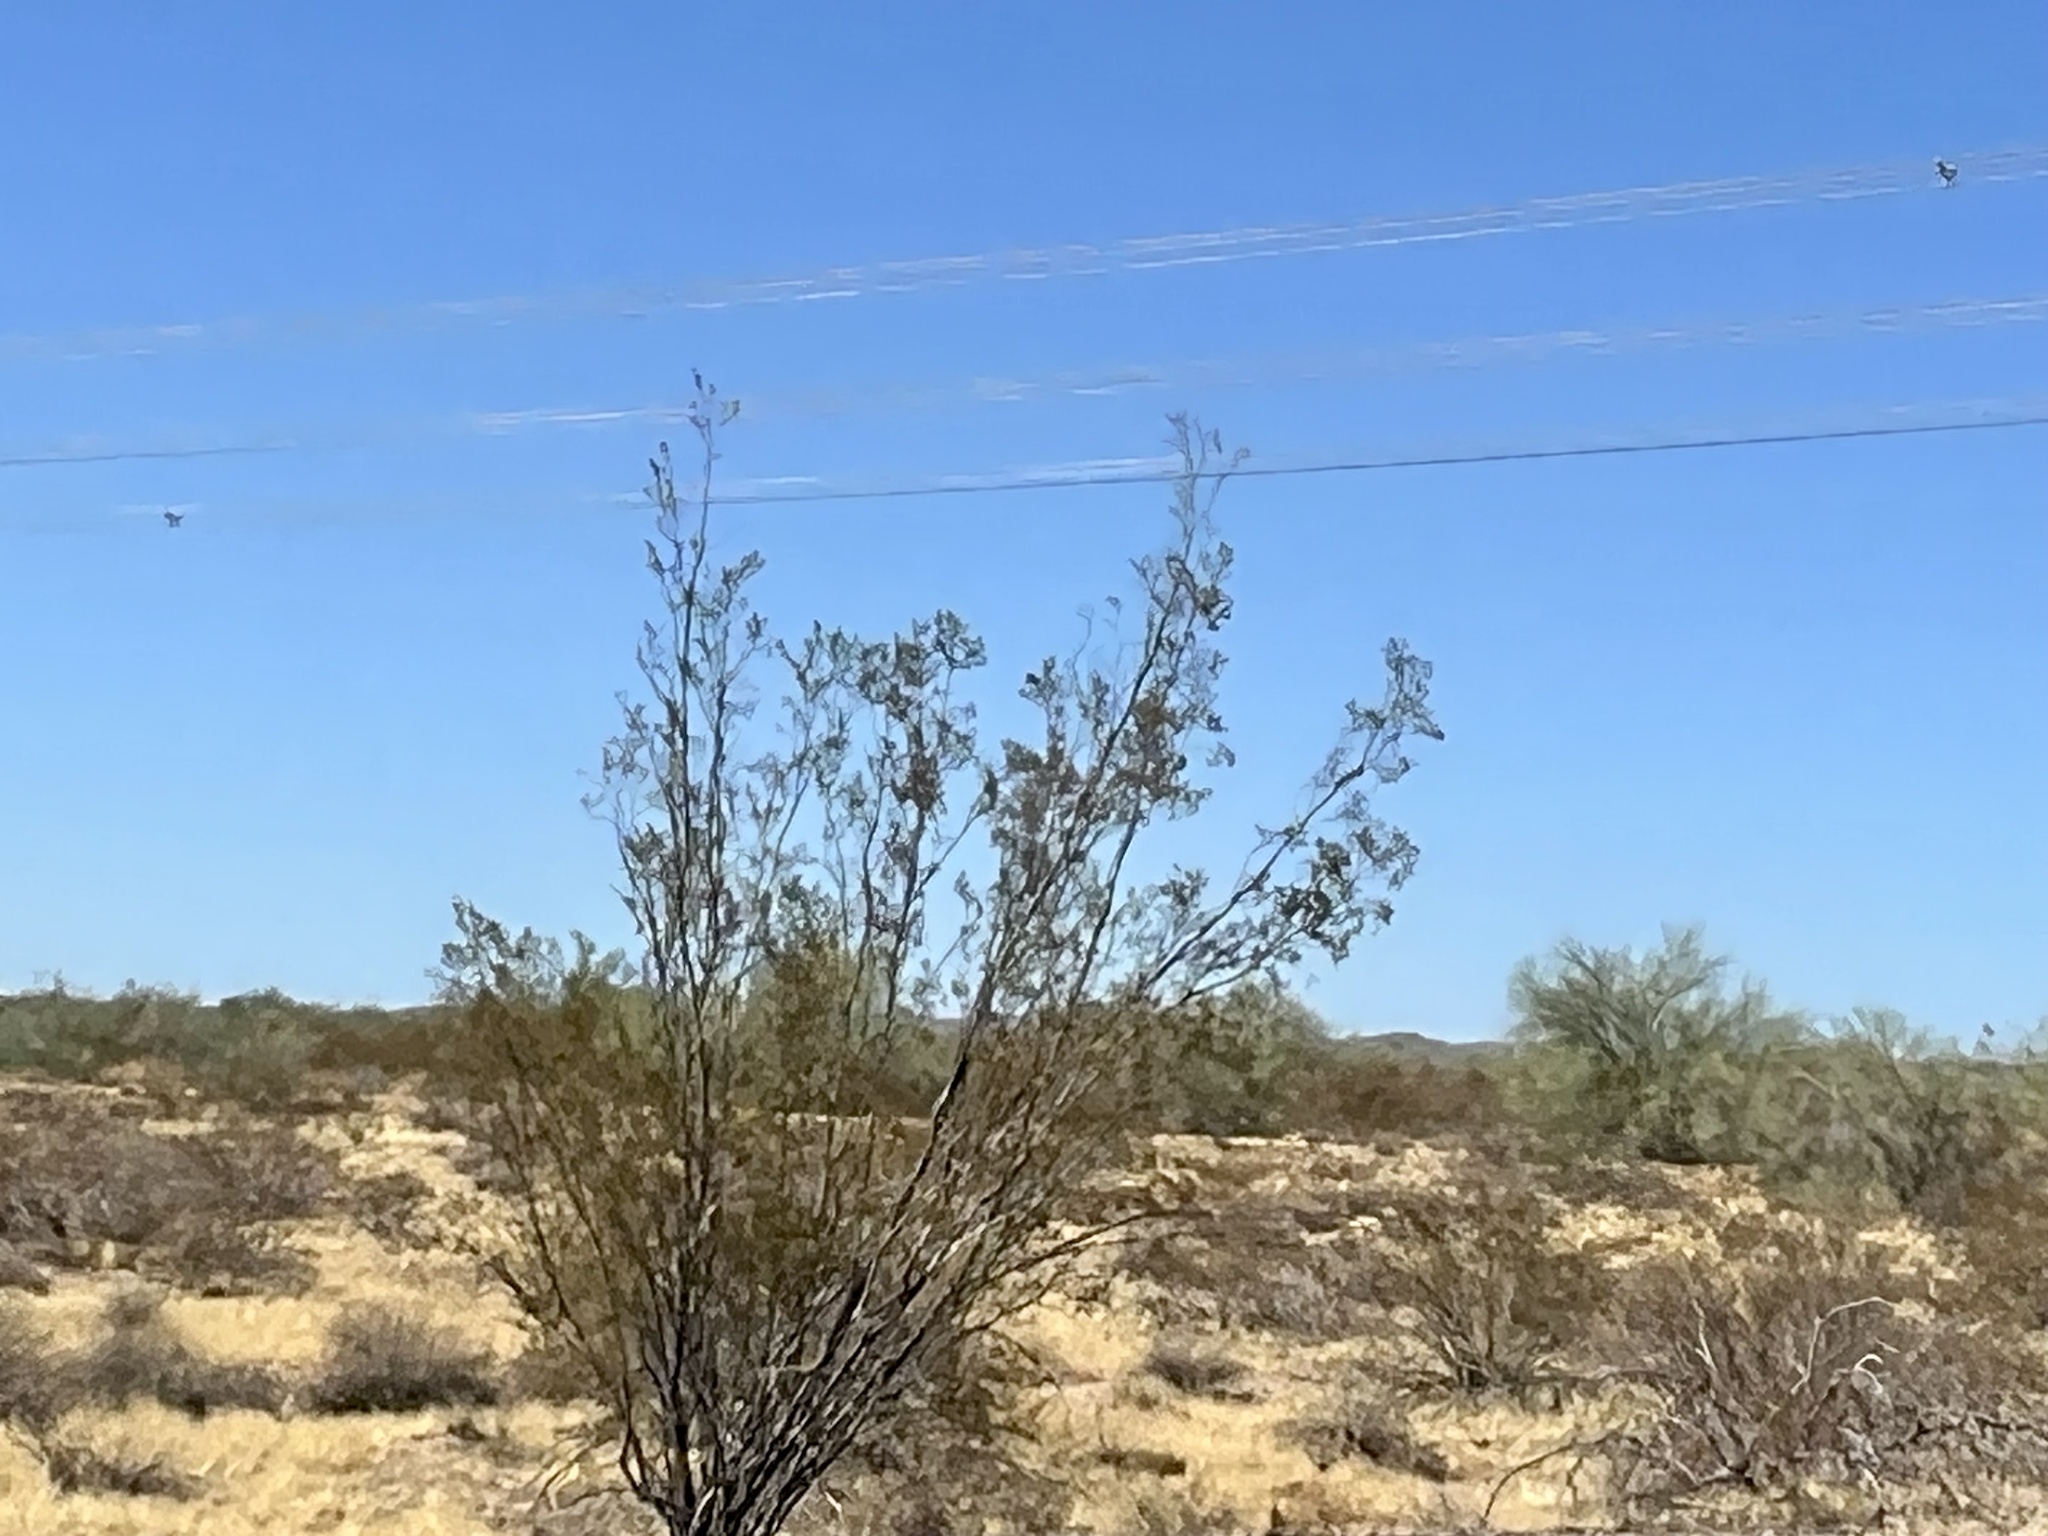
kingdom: Plantae
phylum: Tracheophyta
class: Magnoliopsida
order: Zygophyllales
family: Zygophyllaceae
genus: Larrea
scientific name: Larrea tridentata
